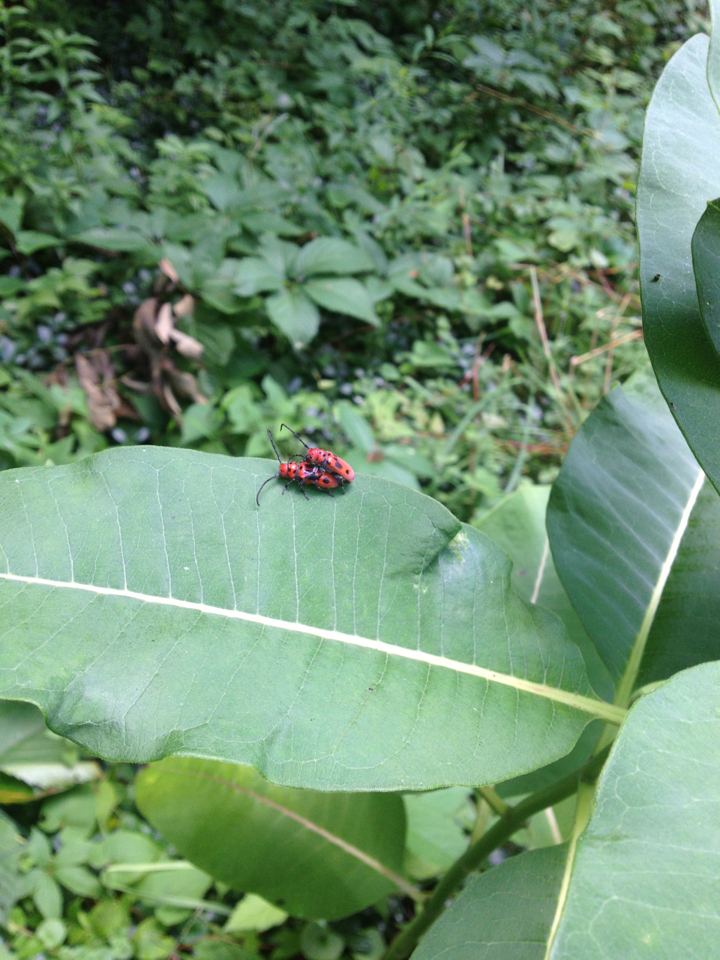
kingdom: Animalia
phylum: Arthropoda
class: Insecta
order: Coleoptera
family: Cerambycidae
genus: Tetraopes
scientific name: Tetraopes tetrophthalmus
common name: Red milkweed beetle
